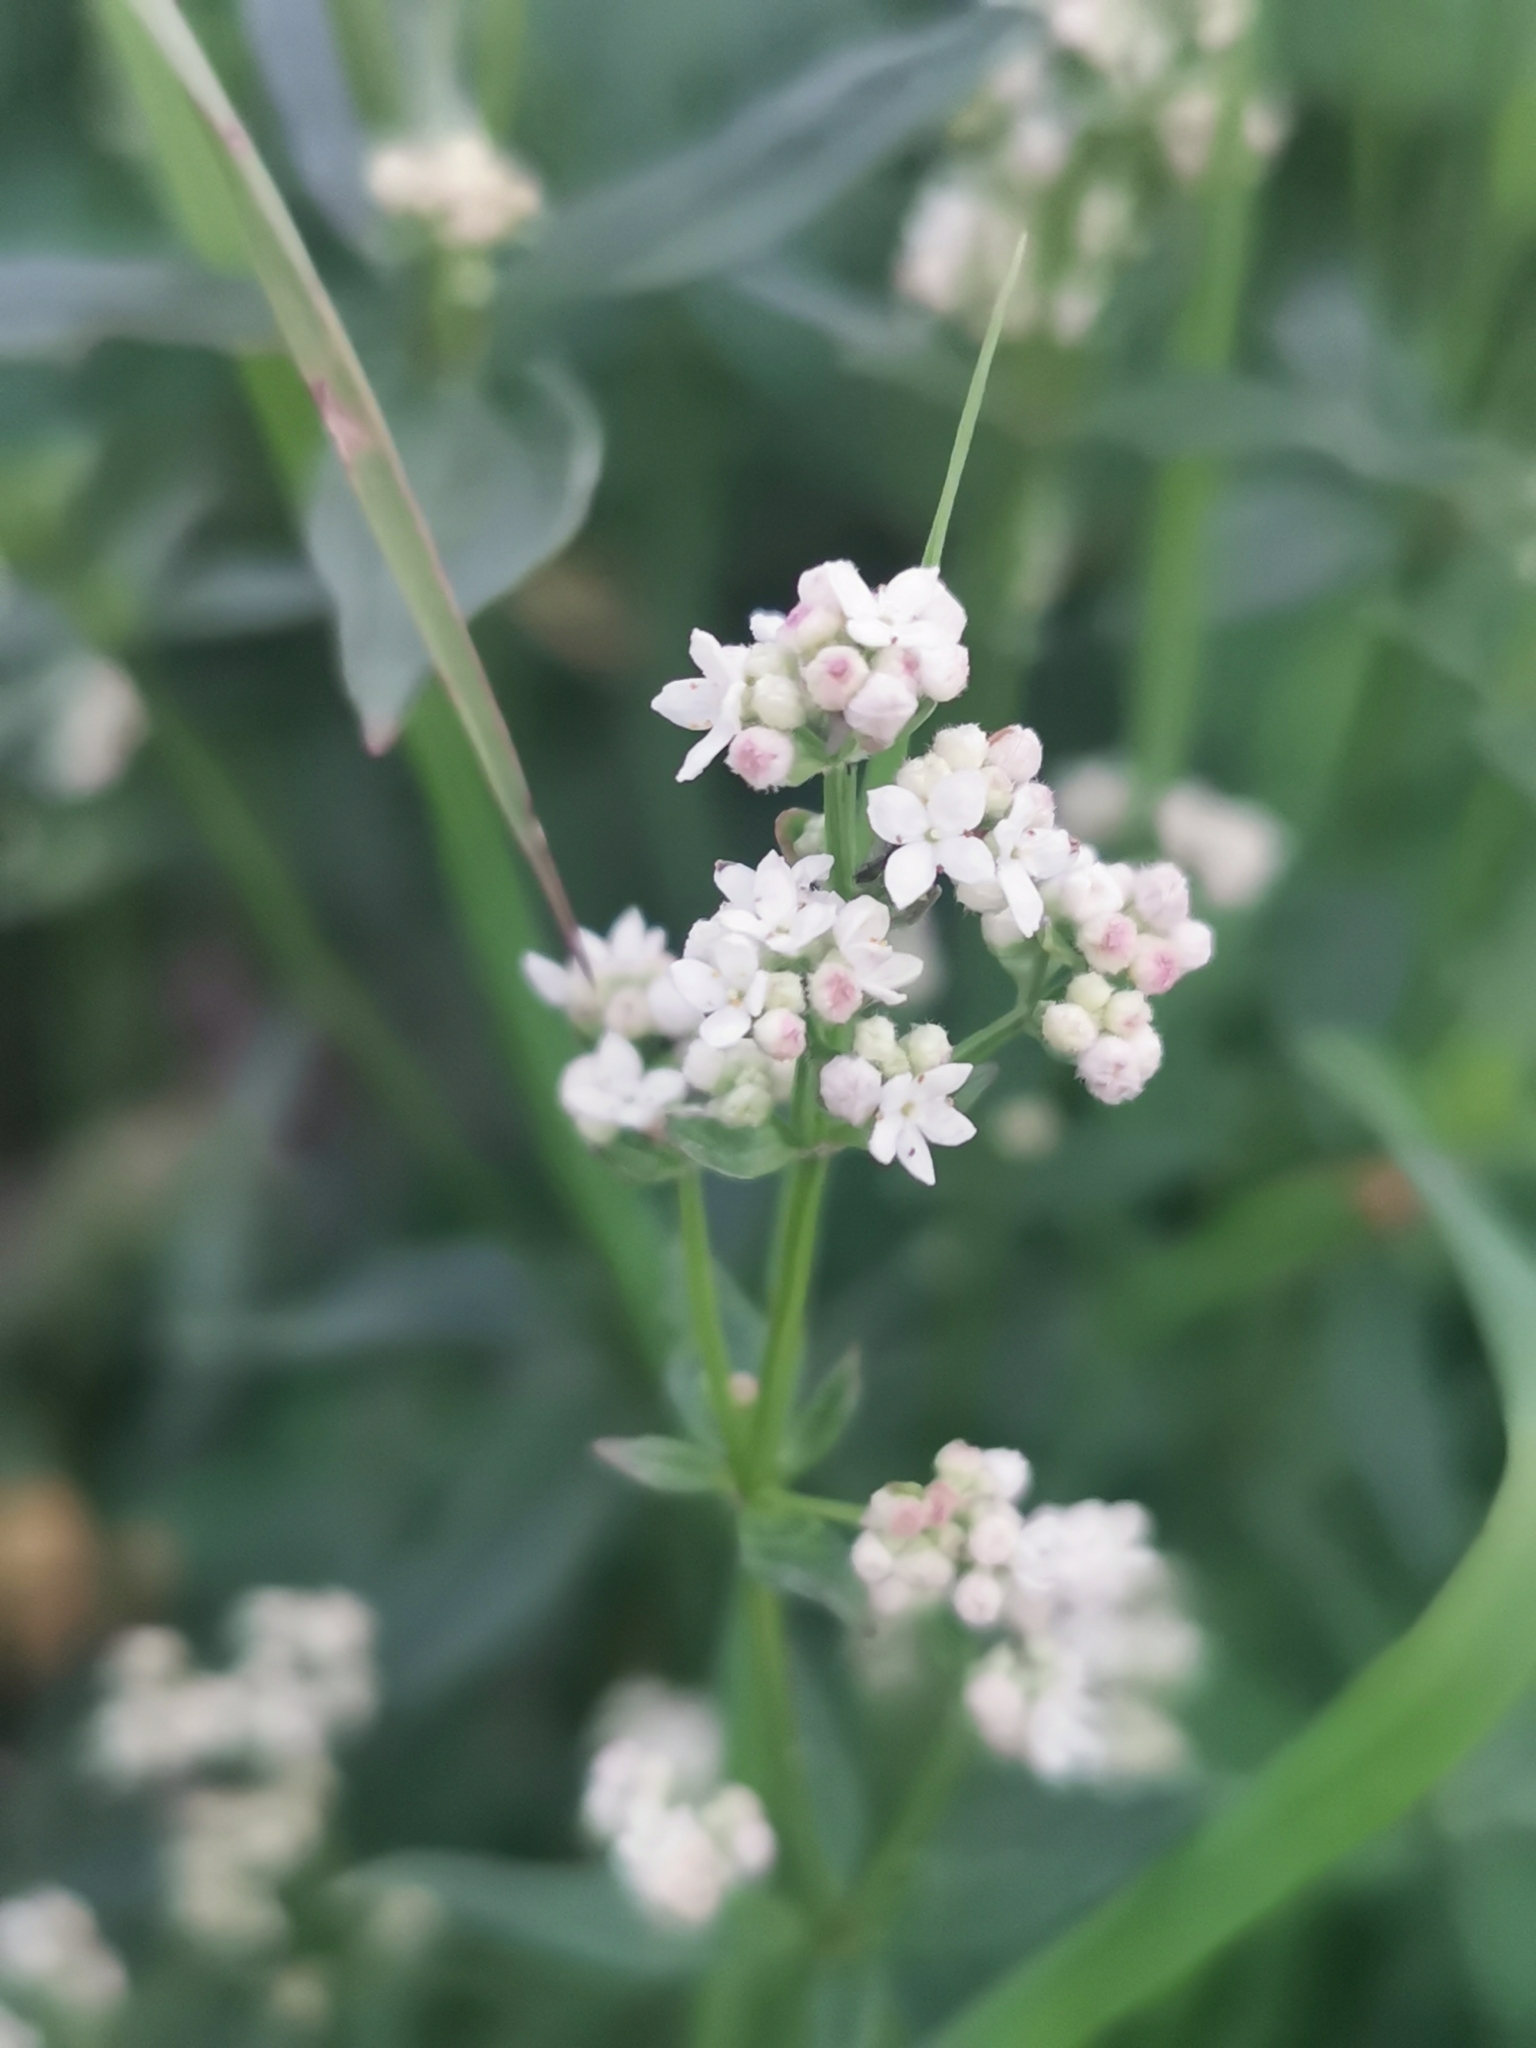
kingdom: Plantae
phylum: Tracheophyta
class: Magnoliopsida
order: Gentianales
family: Rubiaceae
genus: Galium
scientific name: Galium boreale
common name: Northern bedstraw
